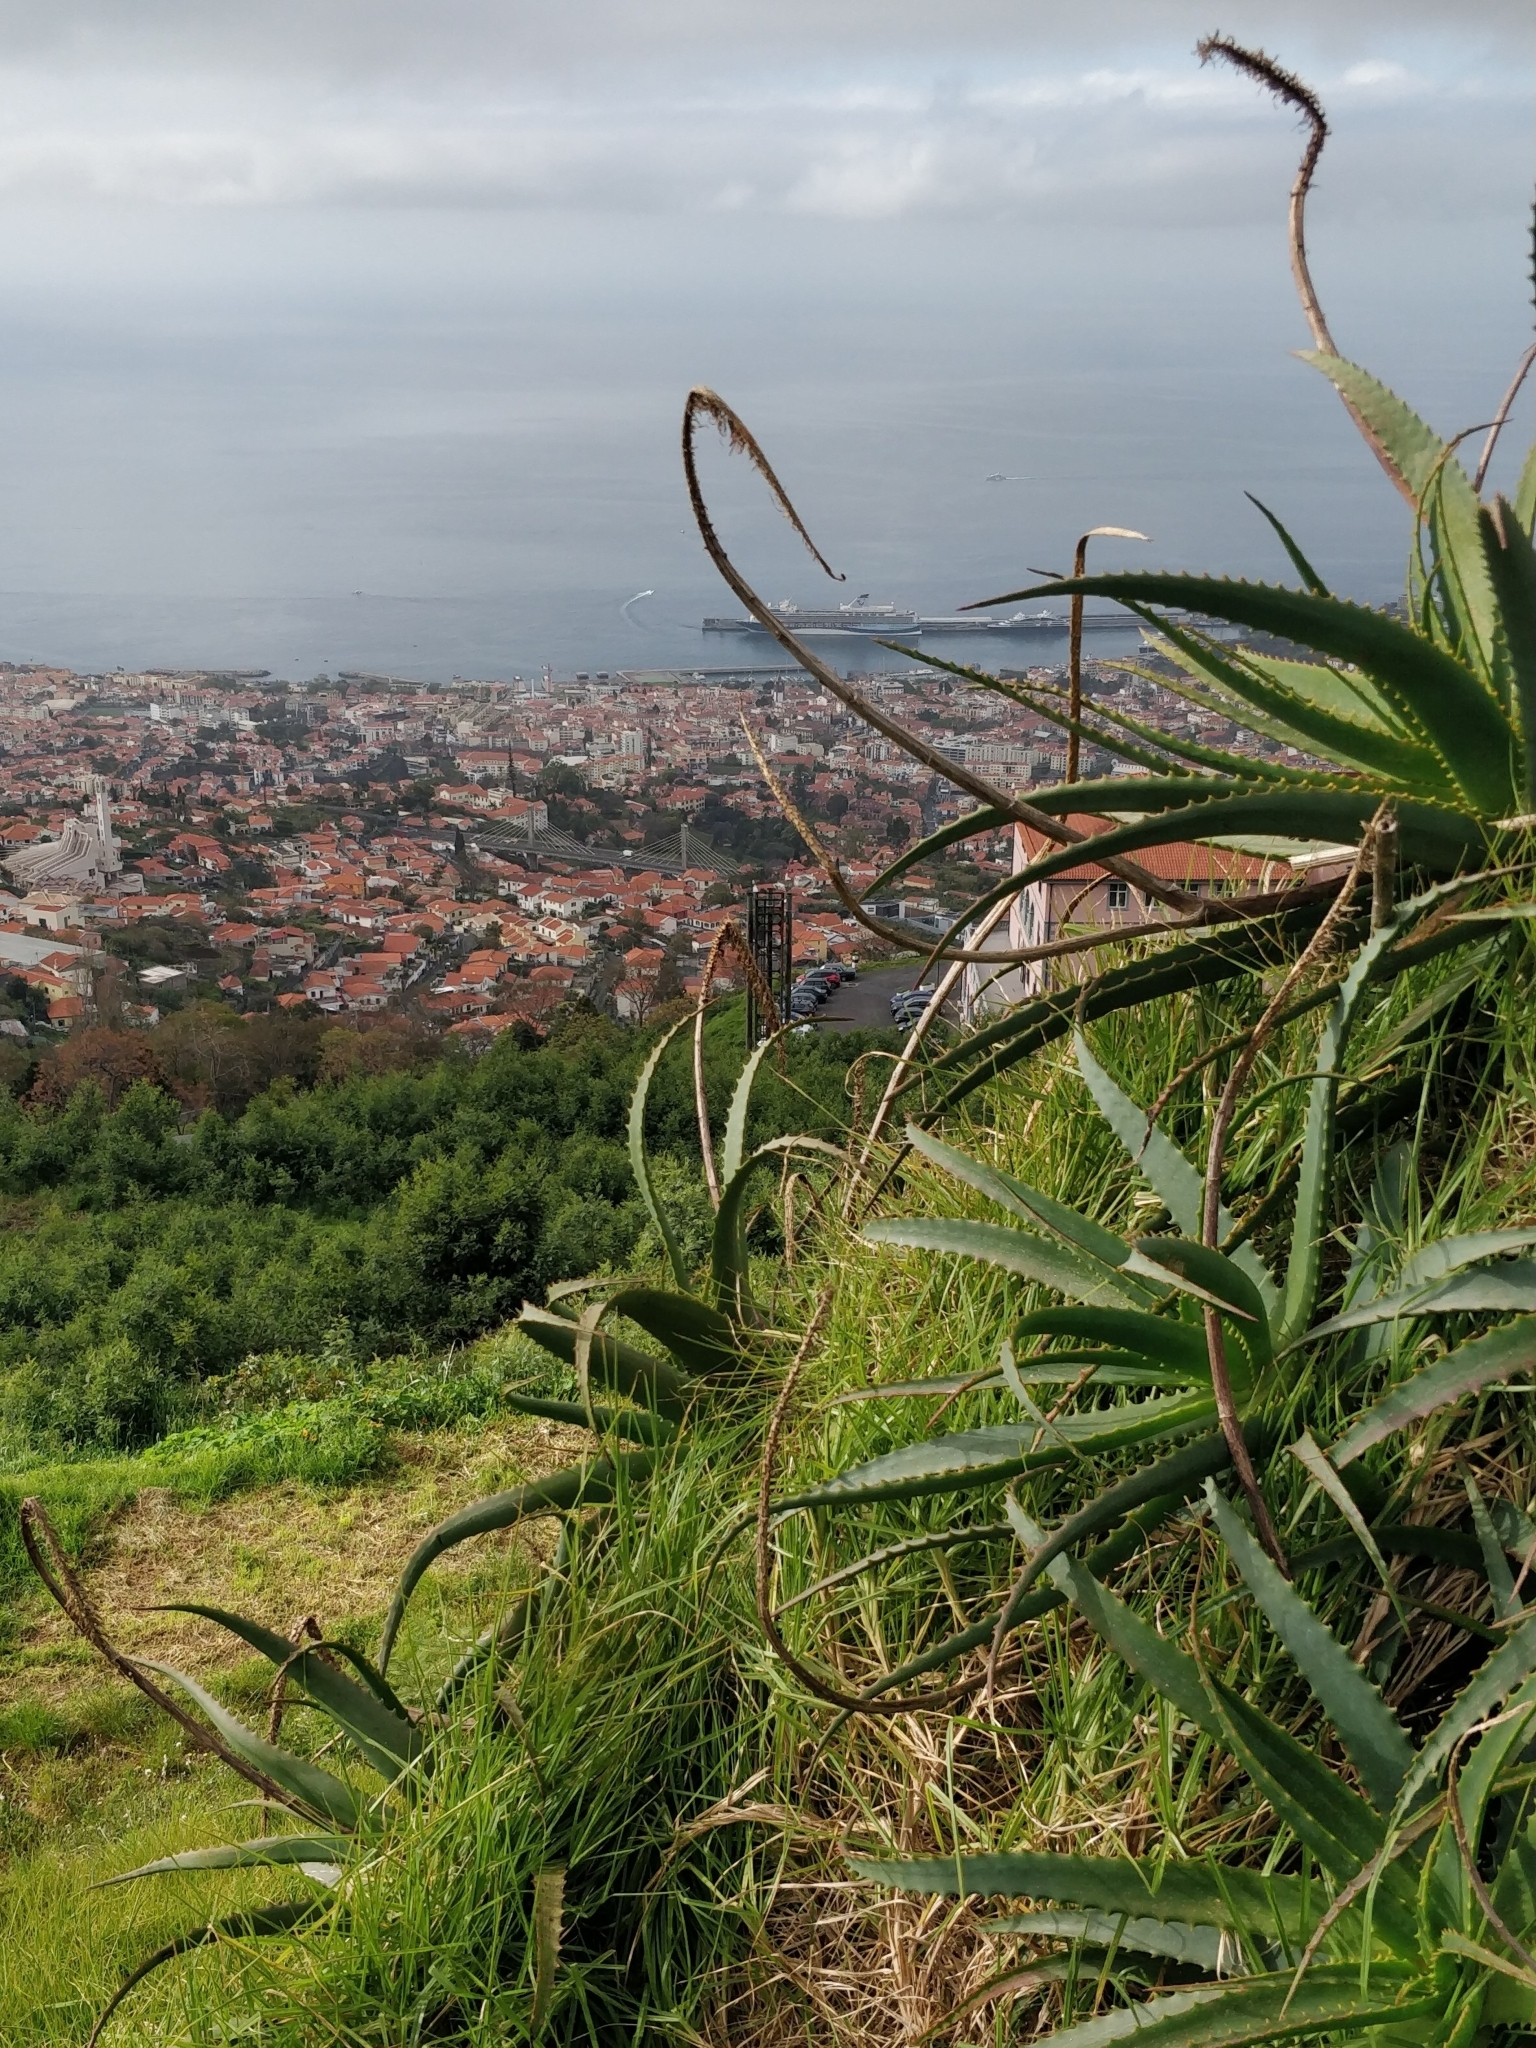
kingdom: Plantae
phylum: Tracheophyta
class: Liliopsida
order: Asparagales
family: Asphodelaceae
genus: Aloe
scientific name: Aloe arborescens
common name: Candelabra aloe
